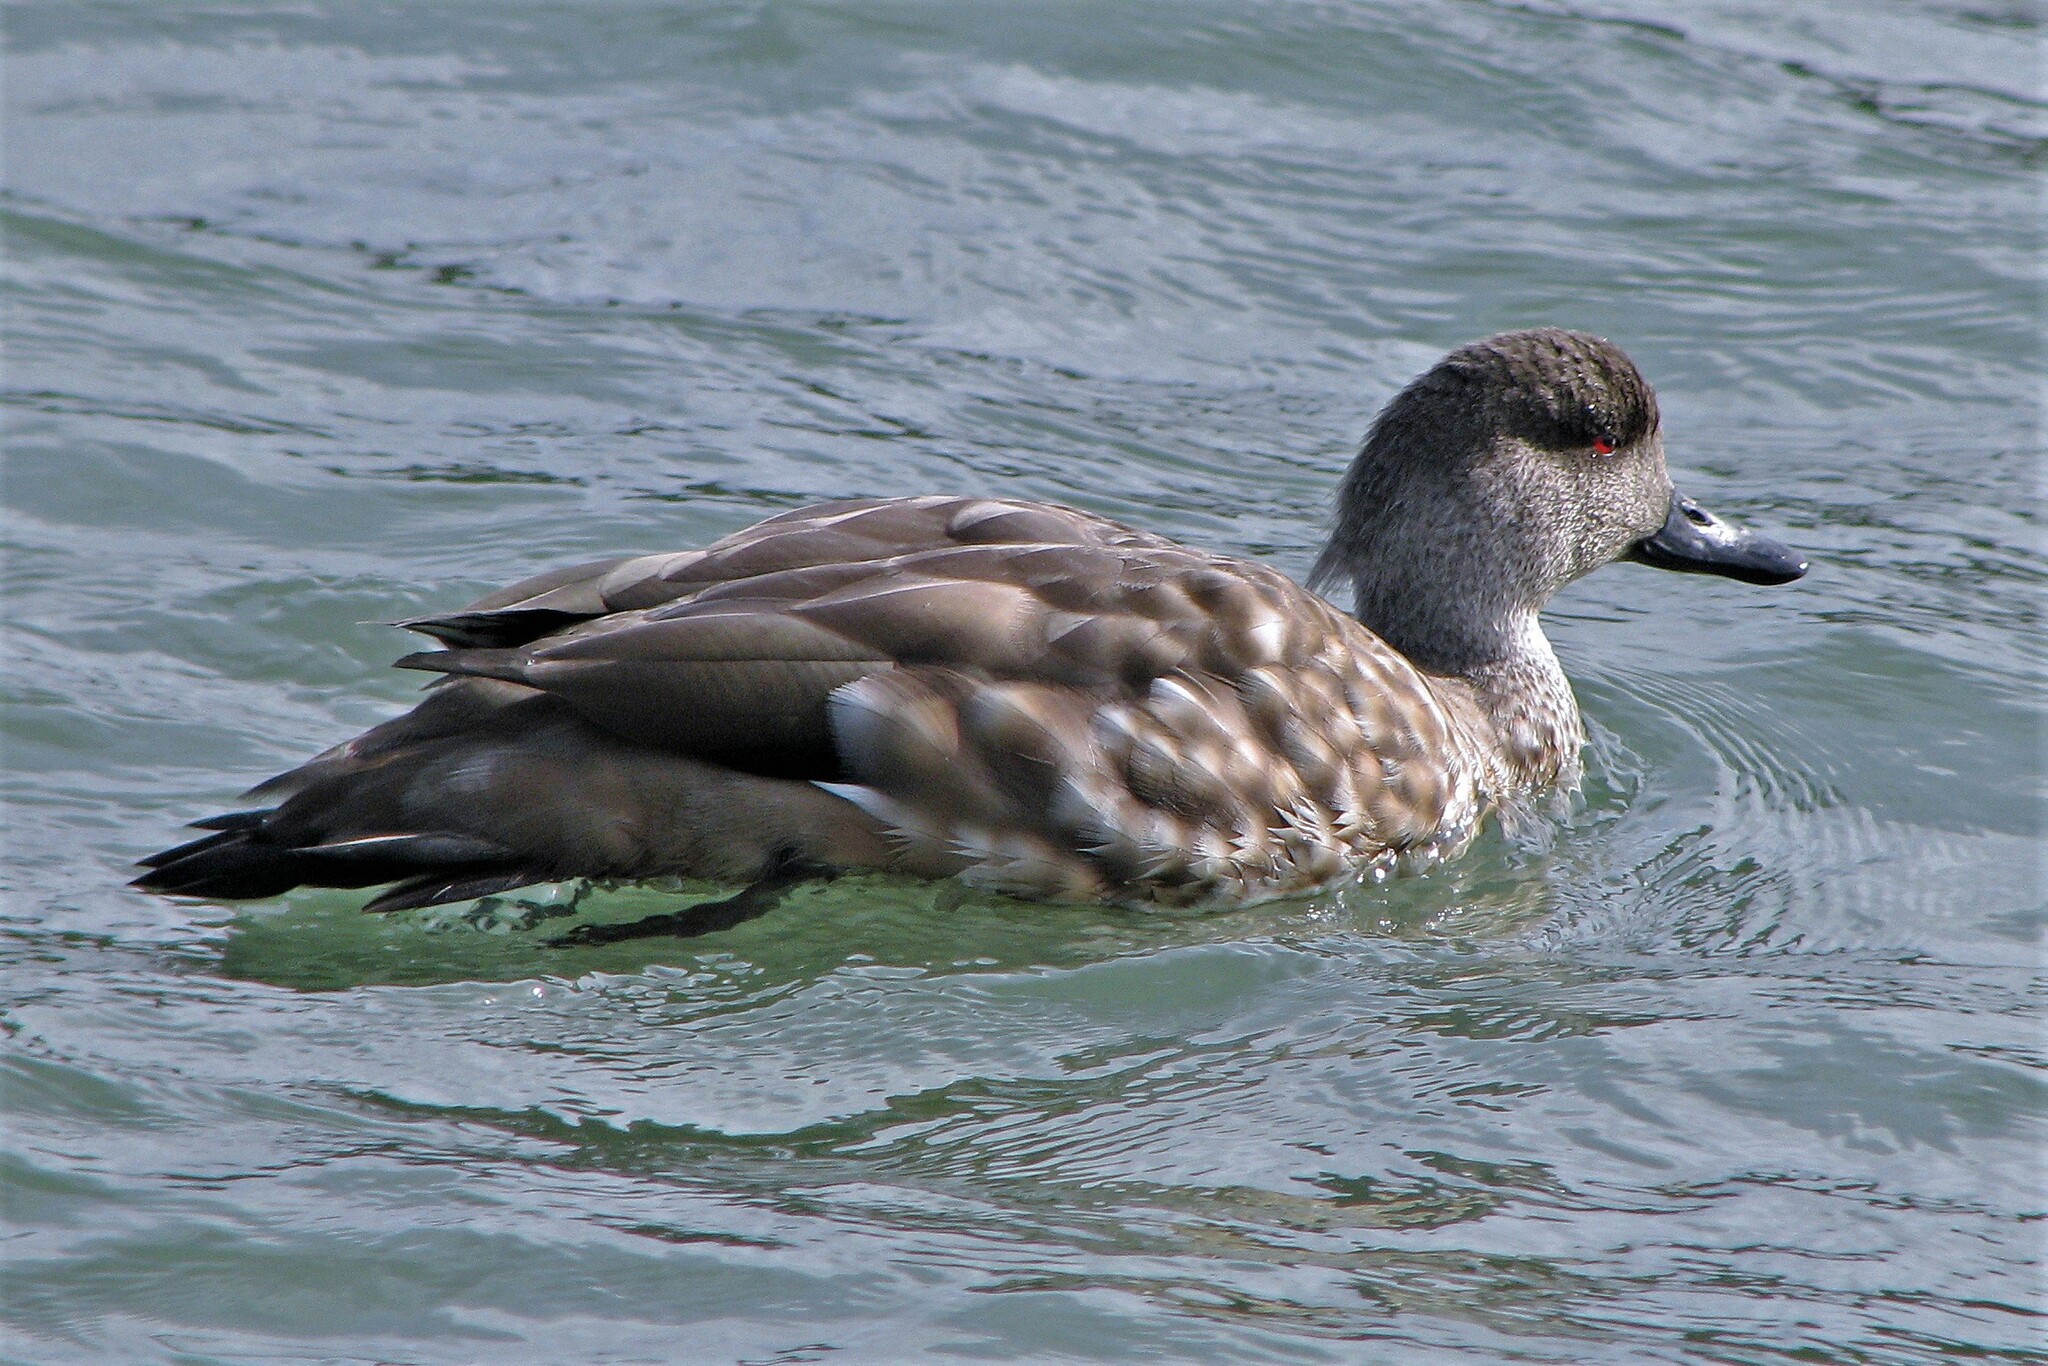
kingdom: Animalia
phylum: Chordata
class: Aves
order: Anseriformes
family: Anatidae
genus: Lophonetta
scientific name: Lophonetta specularioides
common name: Crested duck
